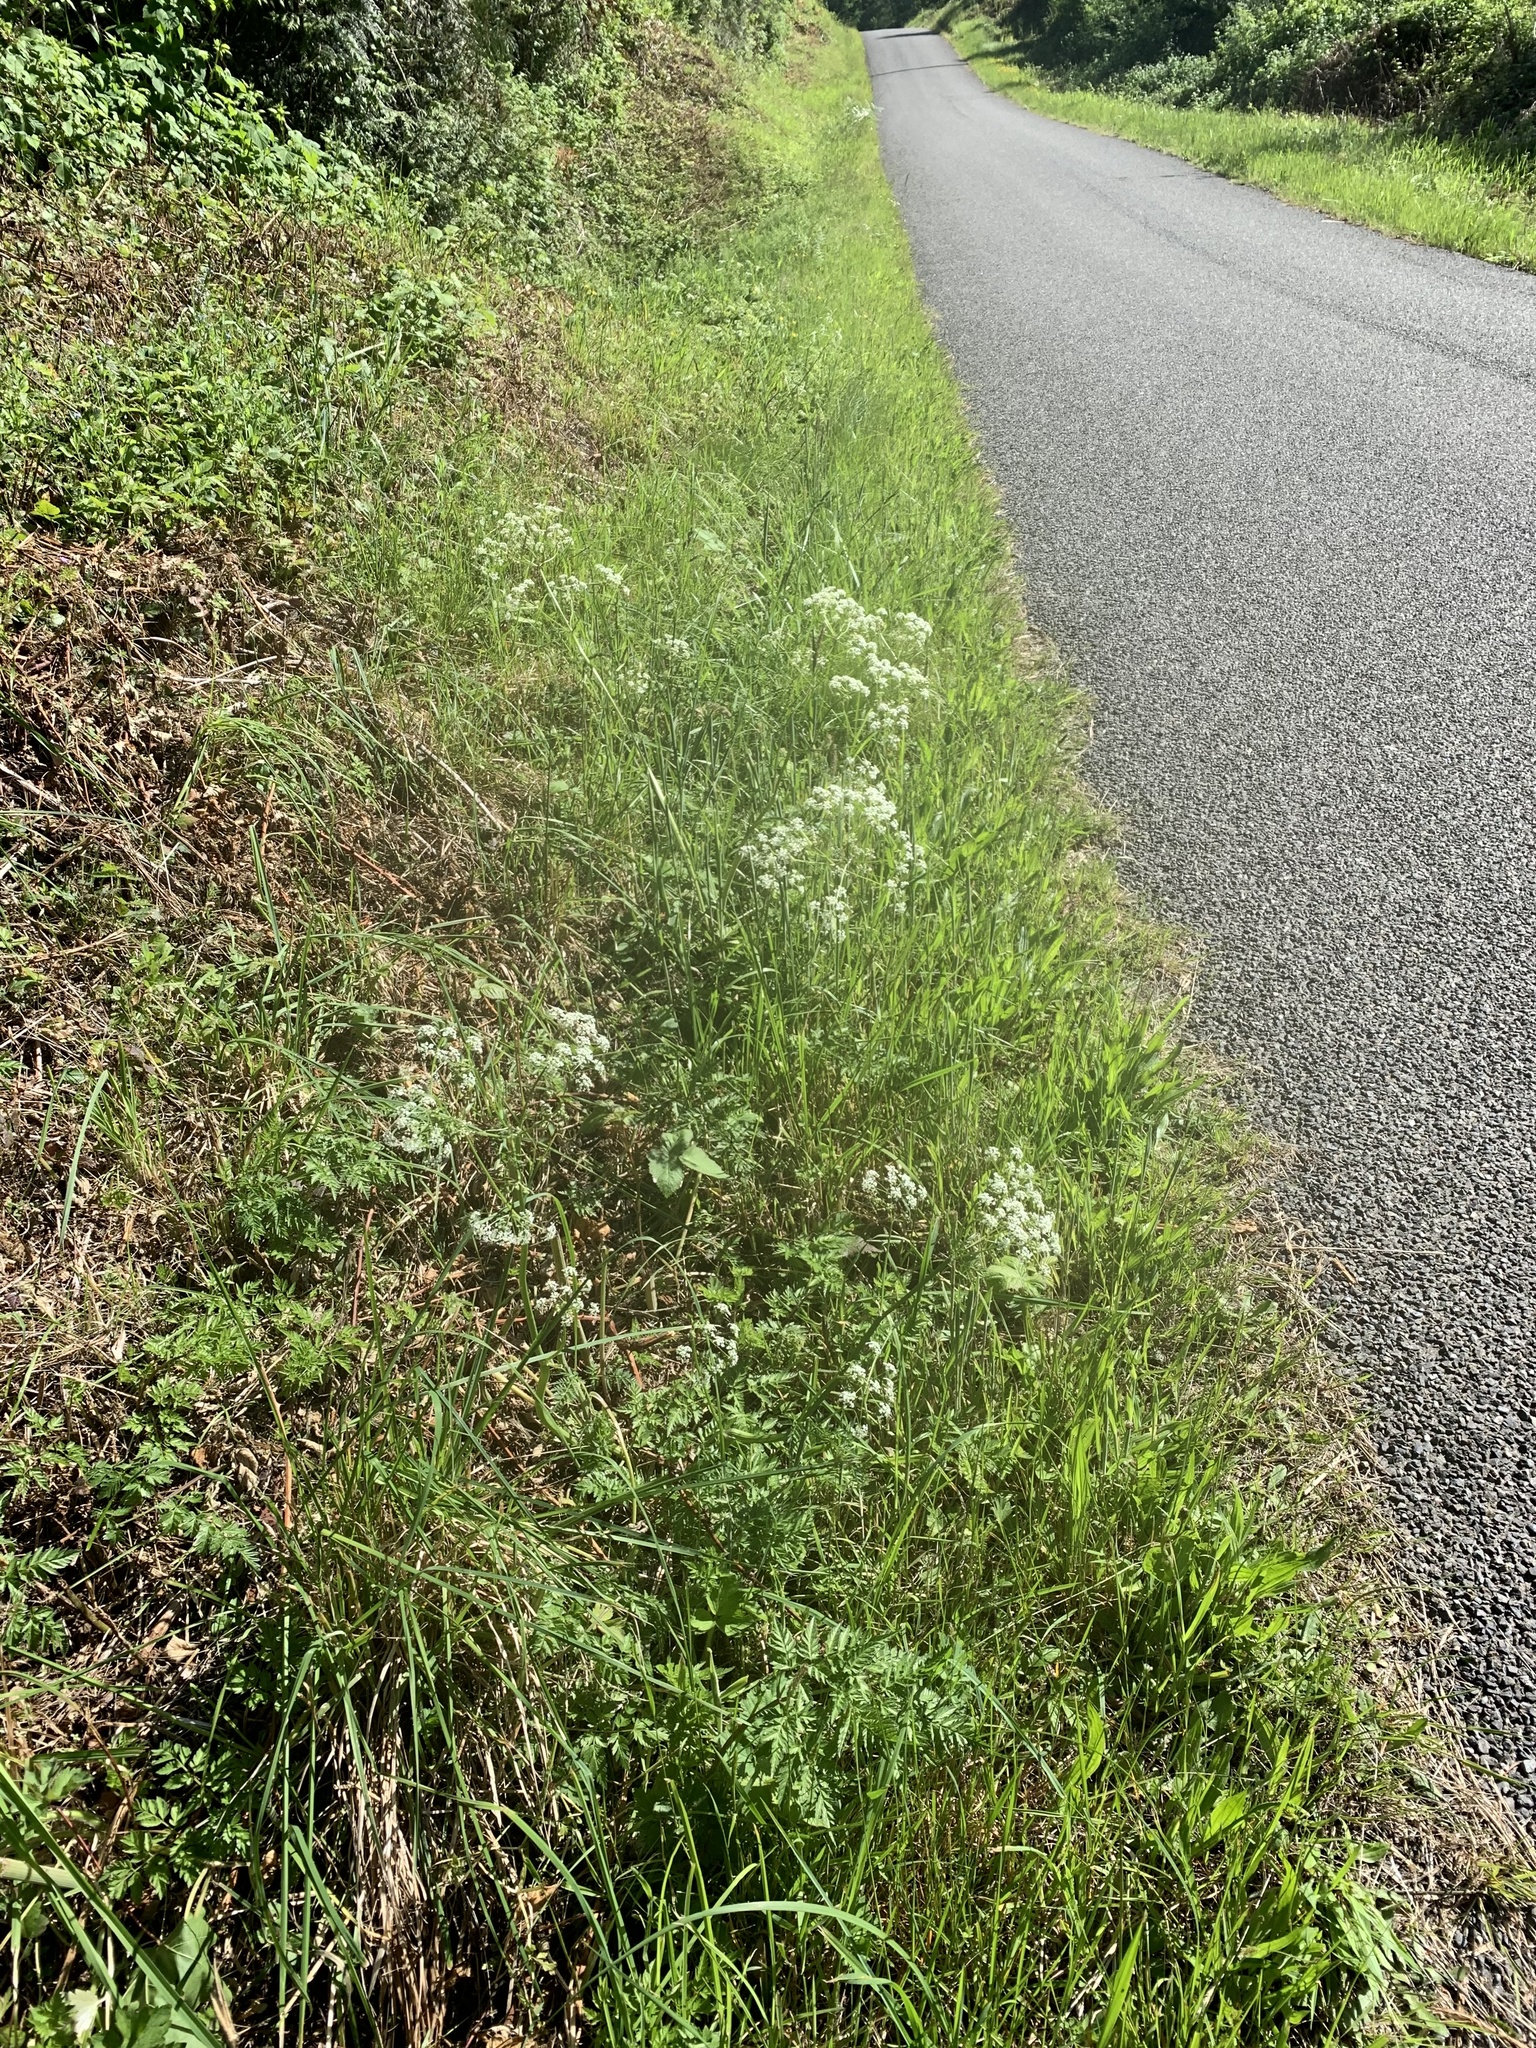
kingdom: Plantae
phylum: Tracheophyta
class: Magnoliopsida
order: Apiales
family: Apiaceae
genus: Anthriscus
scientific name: Anthriscus sylvestris
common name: Cow parsley
